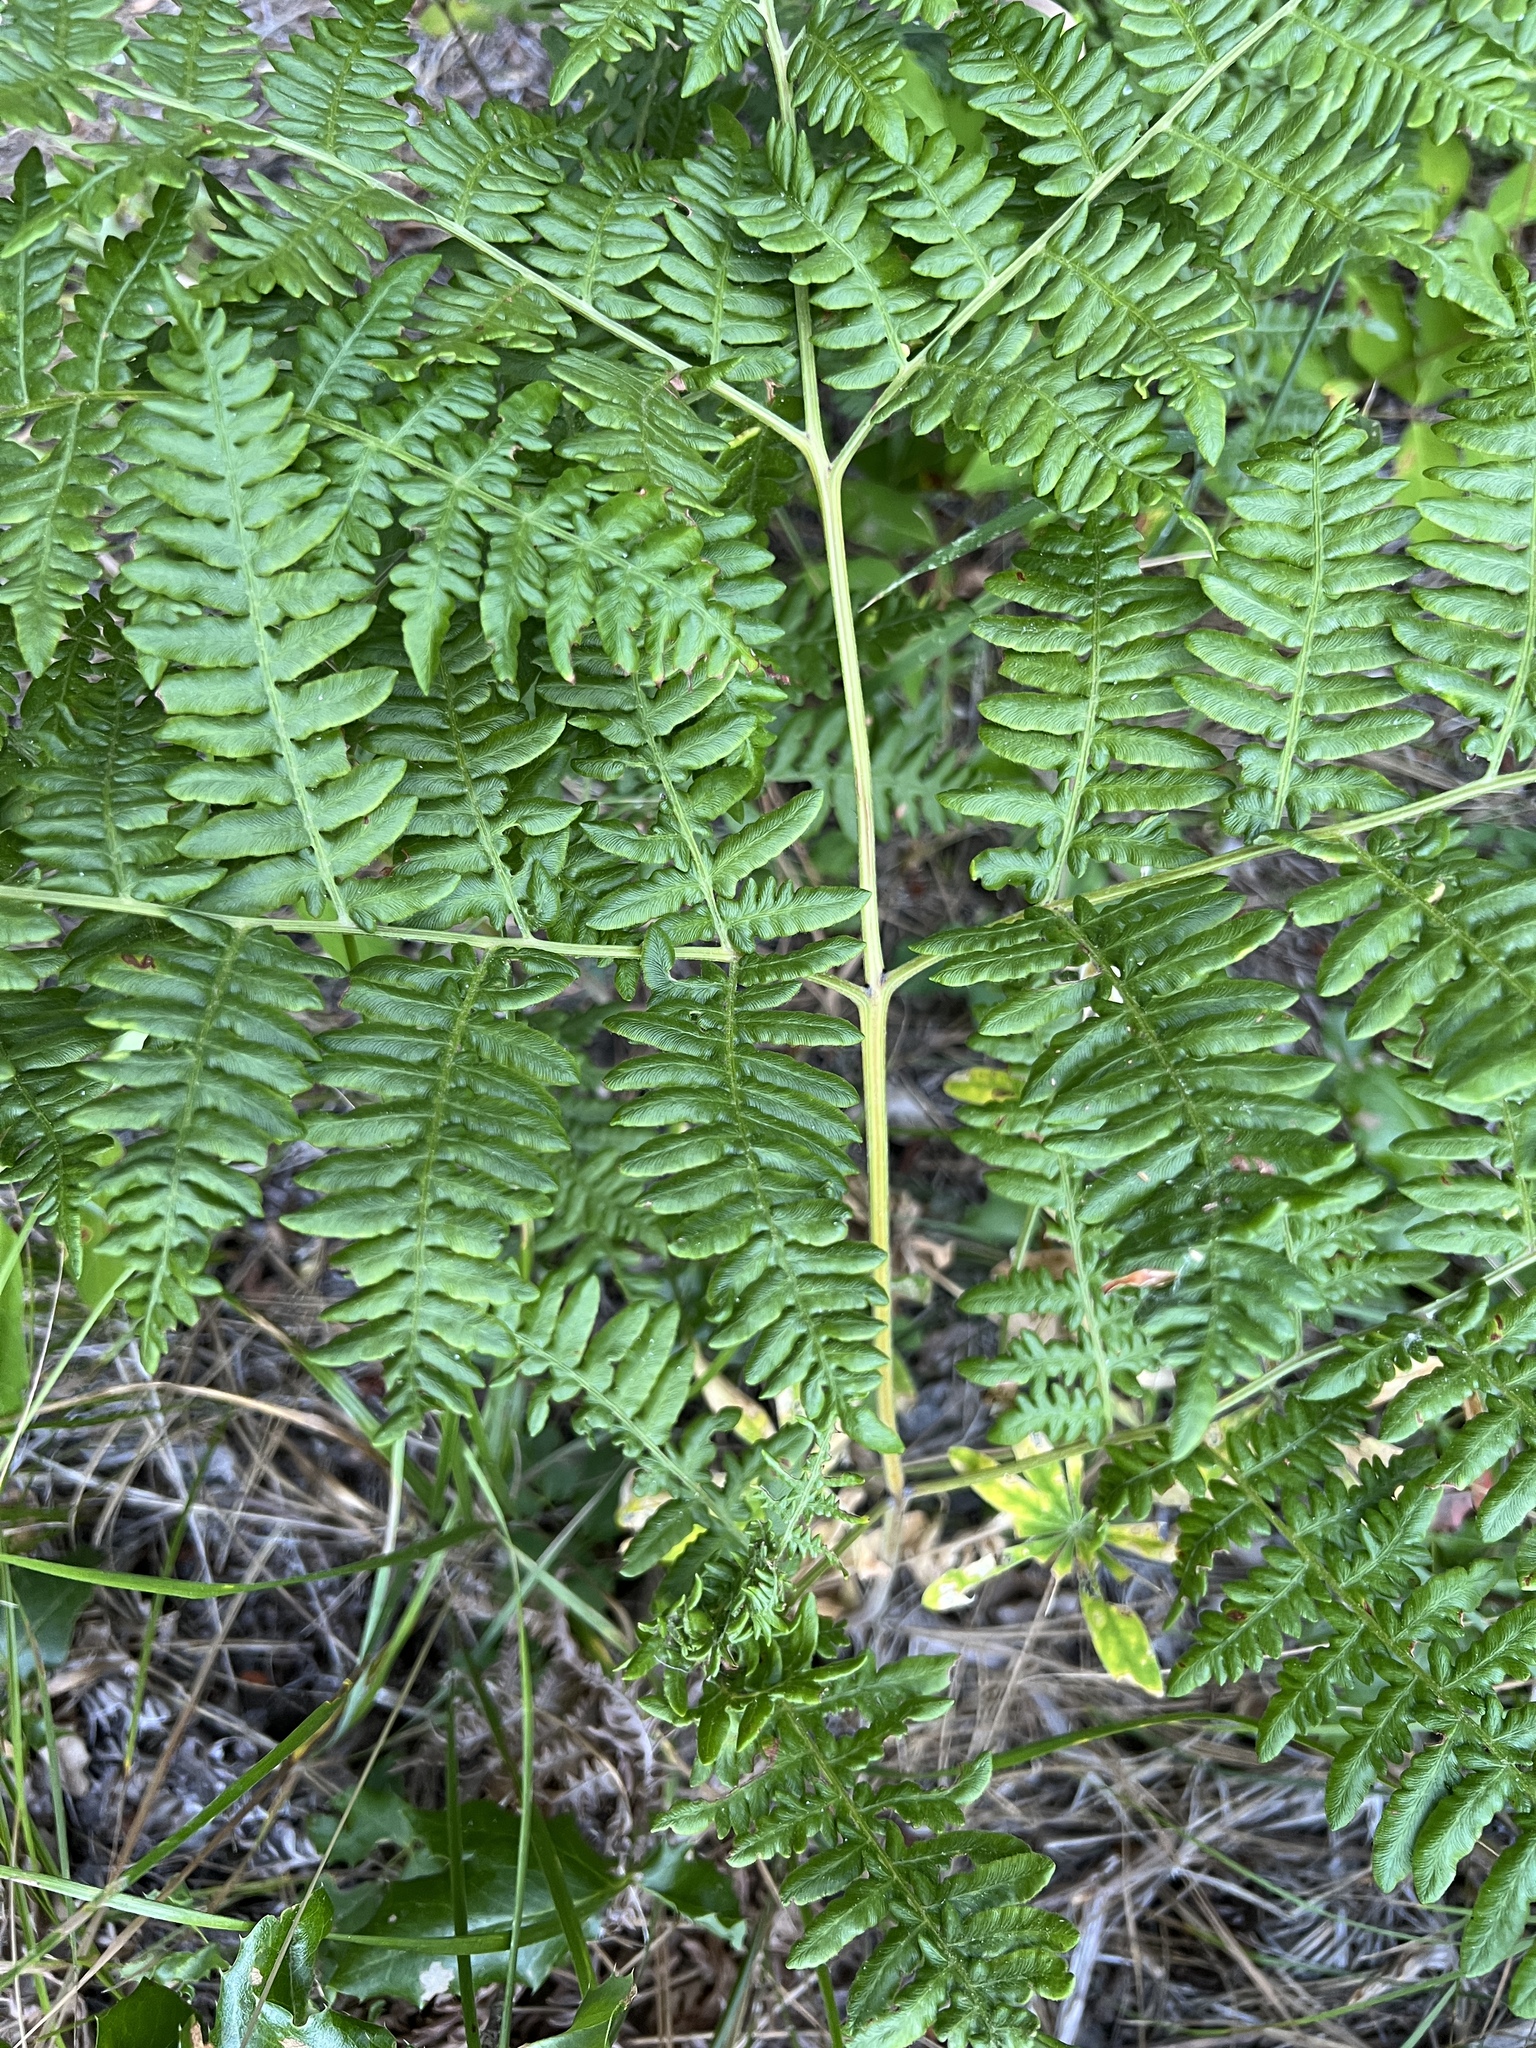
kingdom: Plantae
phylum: Tracheophyta
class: Polypodiopsida
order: Polypodiales
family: Dennstaedtiaceae
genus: Pteridium
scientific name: Pteridium aquilinum
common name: Bracken
